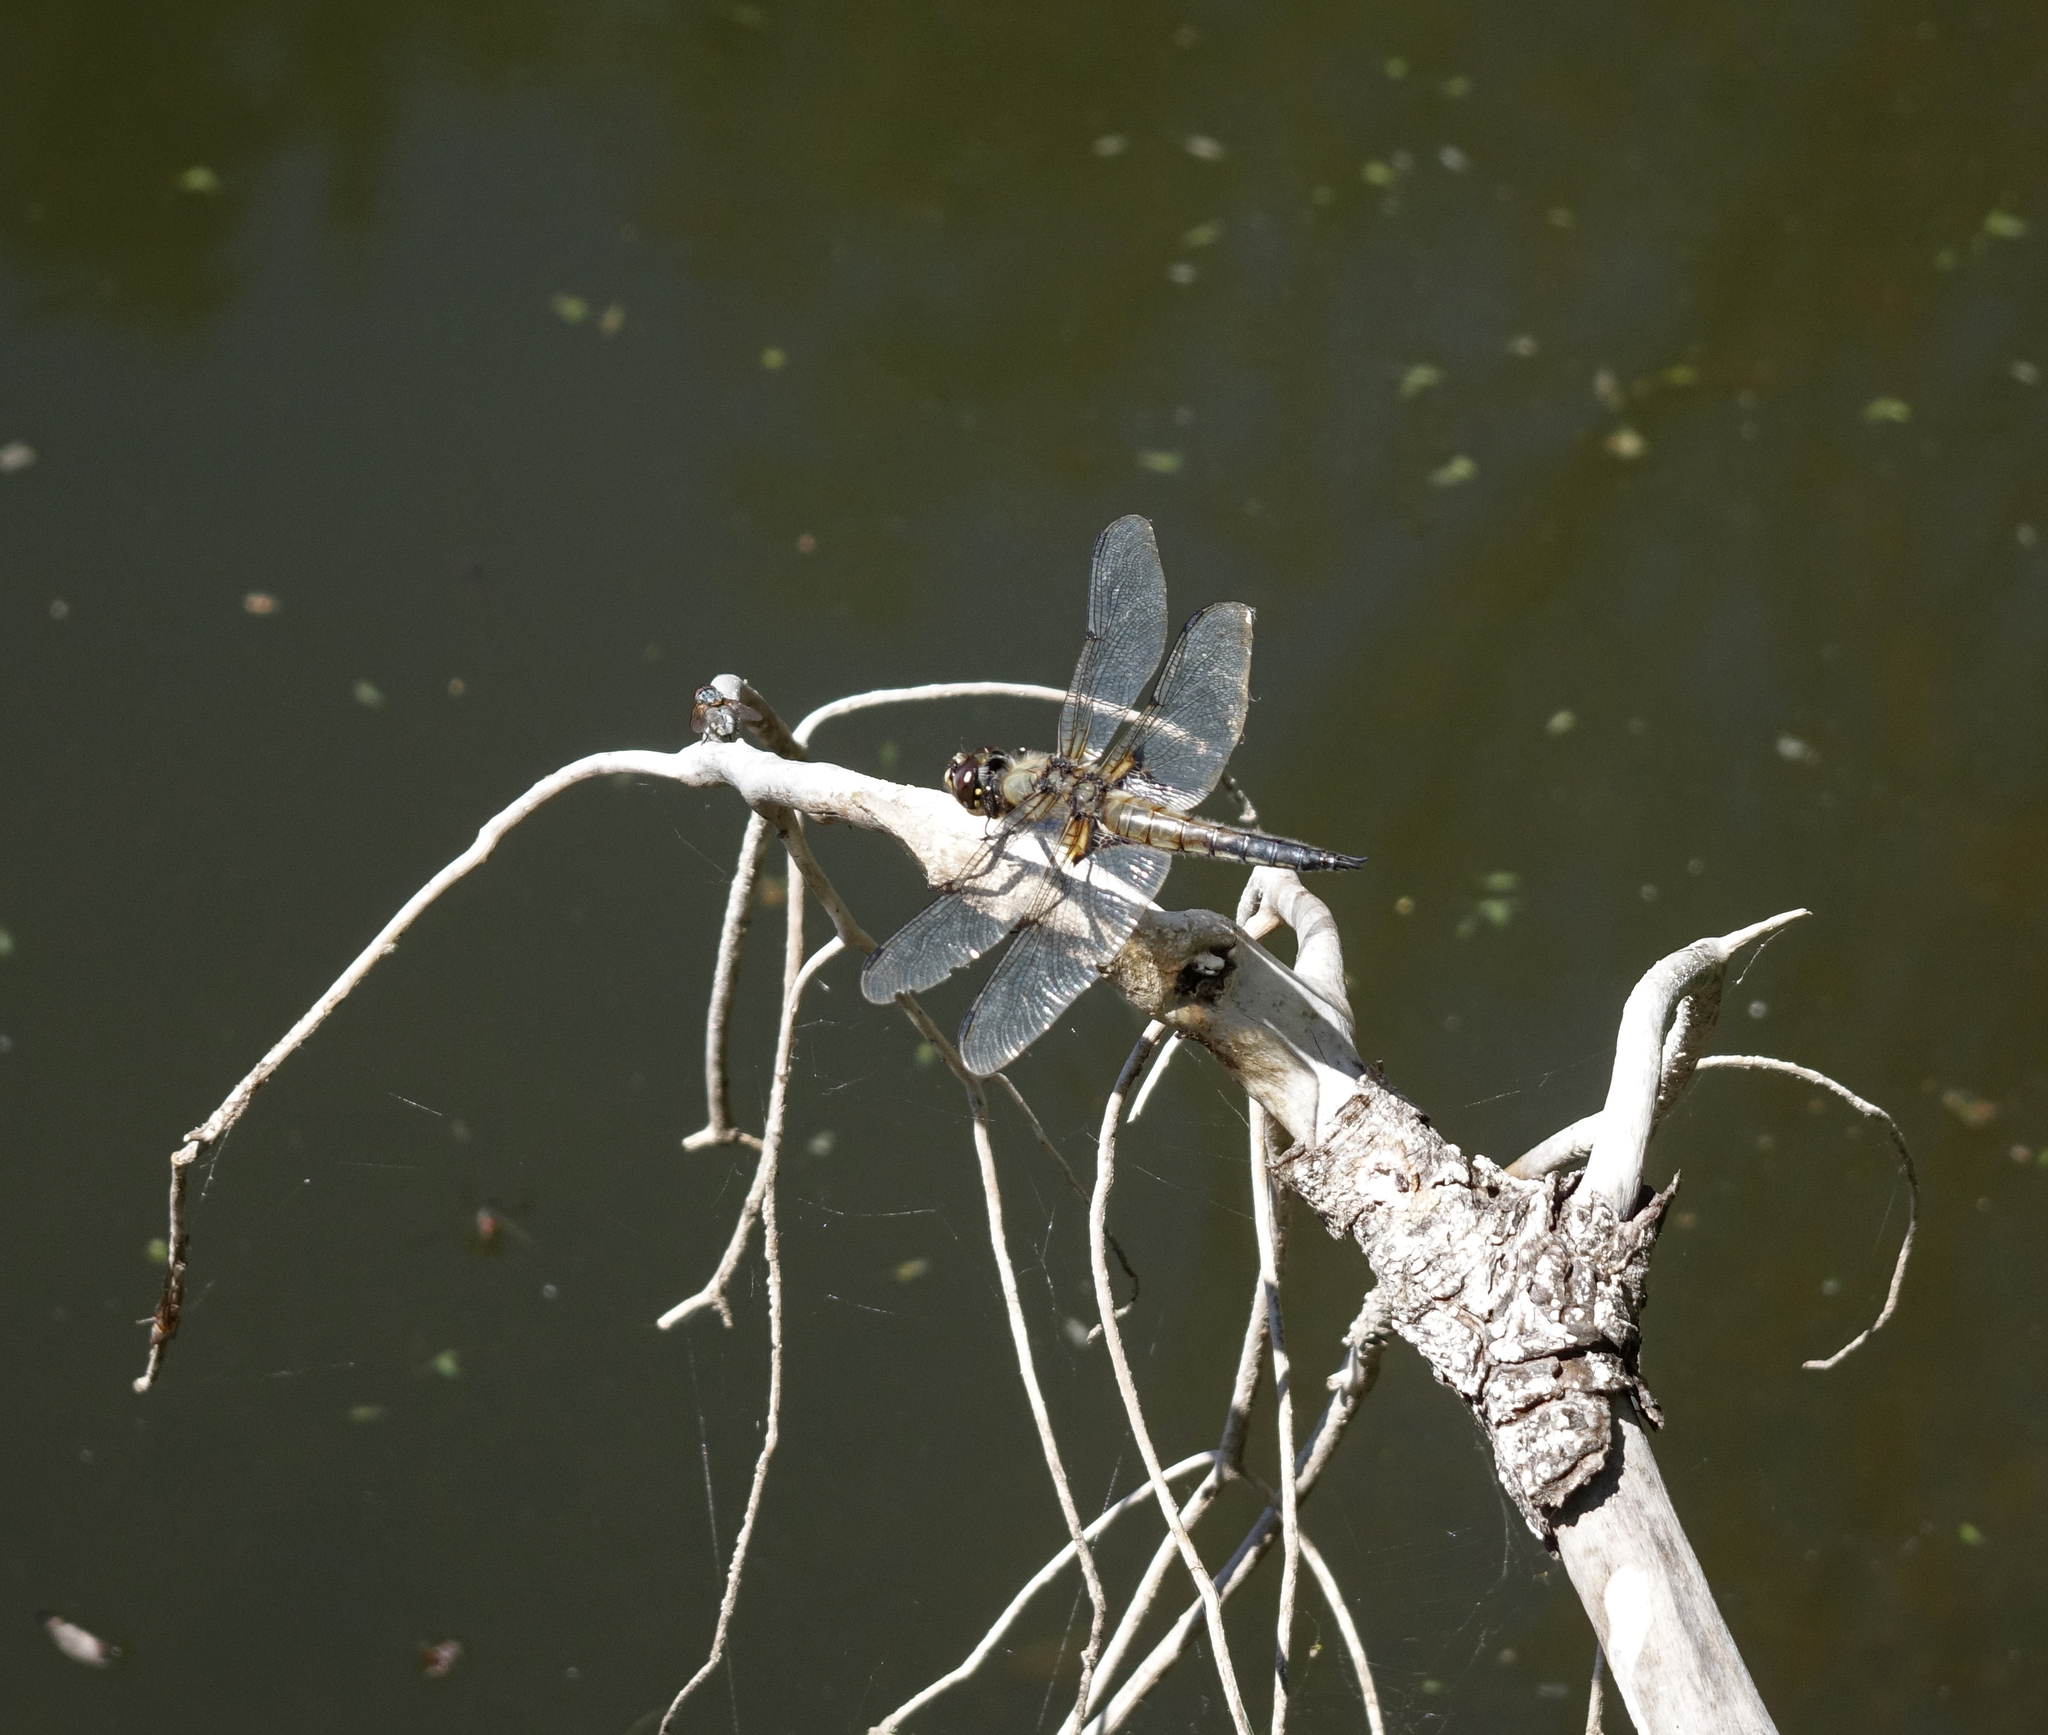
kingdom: Animalia
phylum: Arthropoda
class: Insecta
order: Odonata
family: Libellulidae
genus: Libellula
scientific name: Libellula quadrimaculata
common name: Four-spotted chaser
